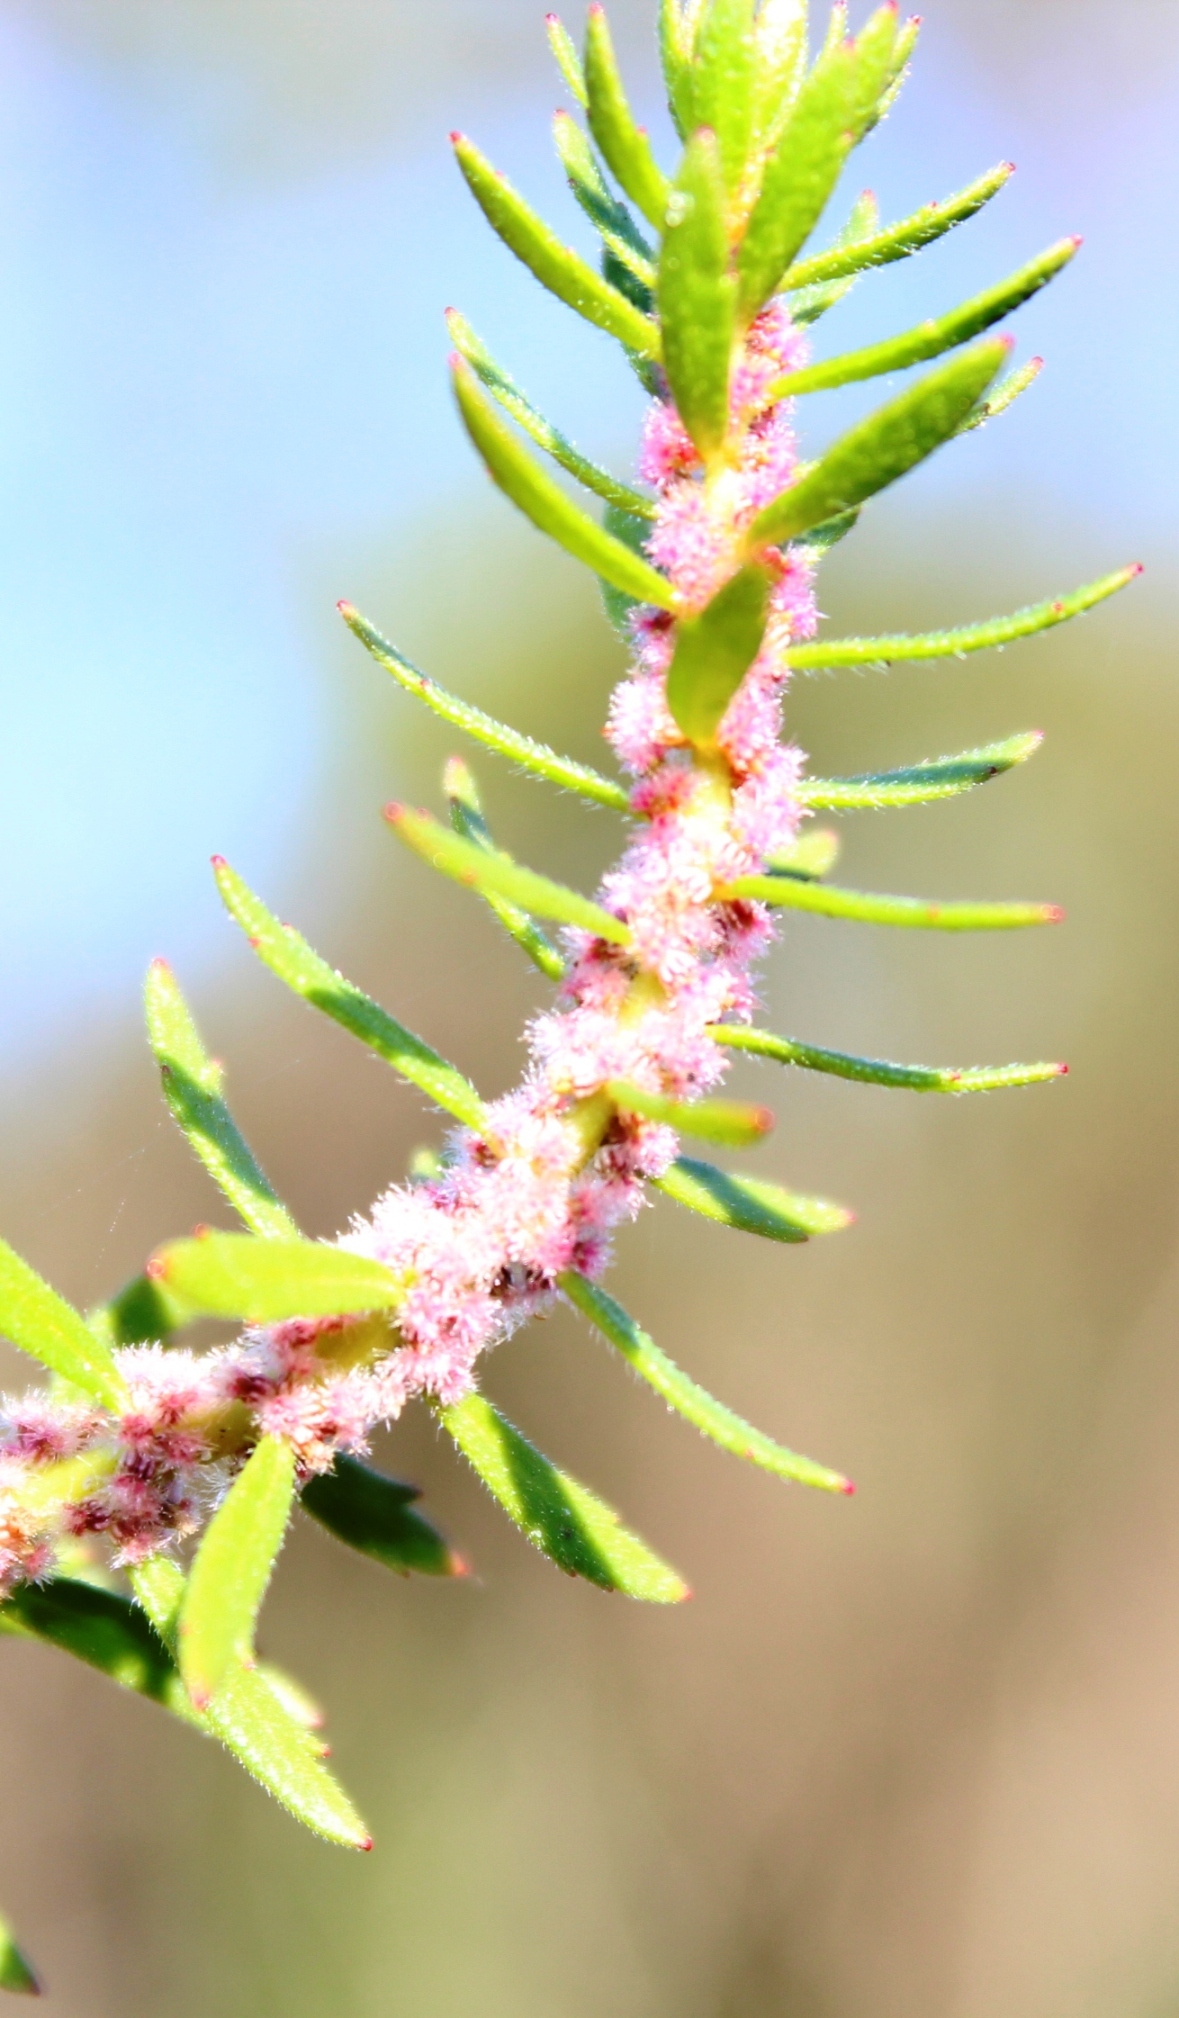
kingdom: Plantae
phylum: Tracheophyta
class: Magnoliopsida
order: Saxifragales
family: Haloragaceae
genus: Laurembergia
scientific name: Laurembergia repens
